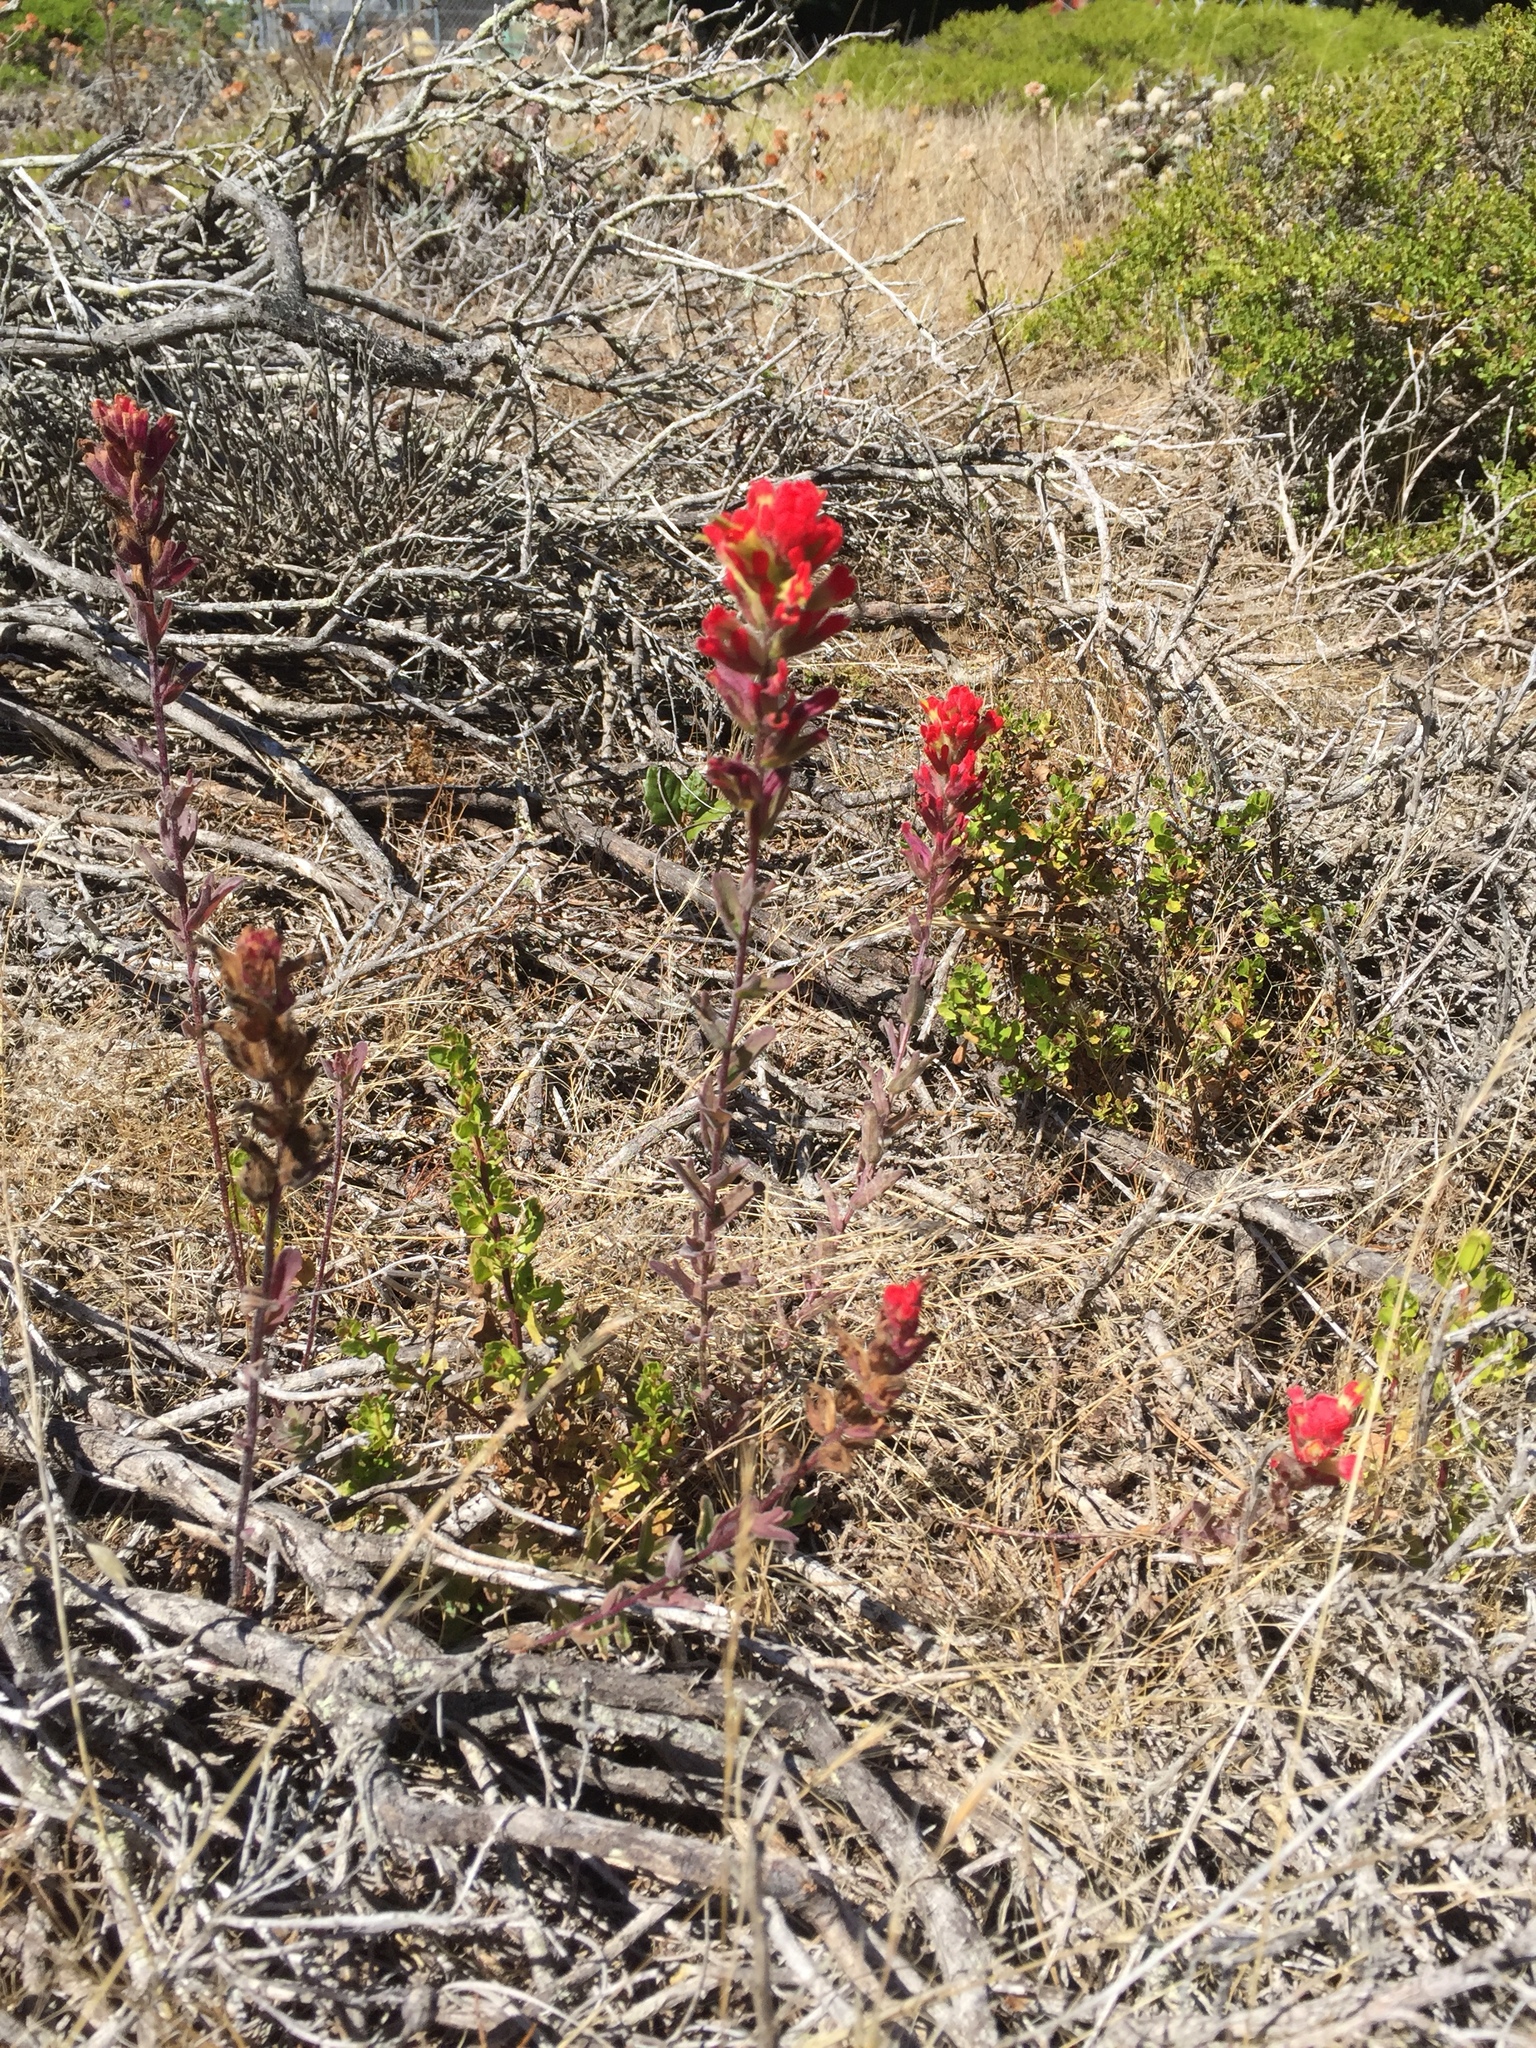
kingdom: Plantae
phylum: Tracheophyta
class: Magnoliopsida
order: Lamiales
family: Orobanchaceae
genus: Castilleja
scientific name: Castilleja affinis
